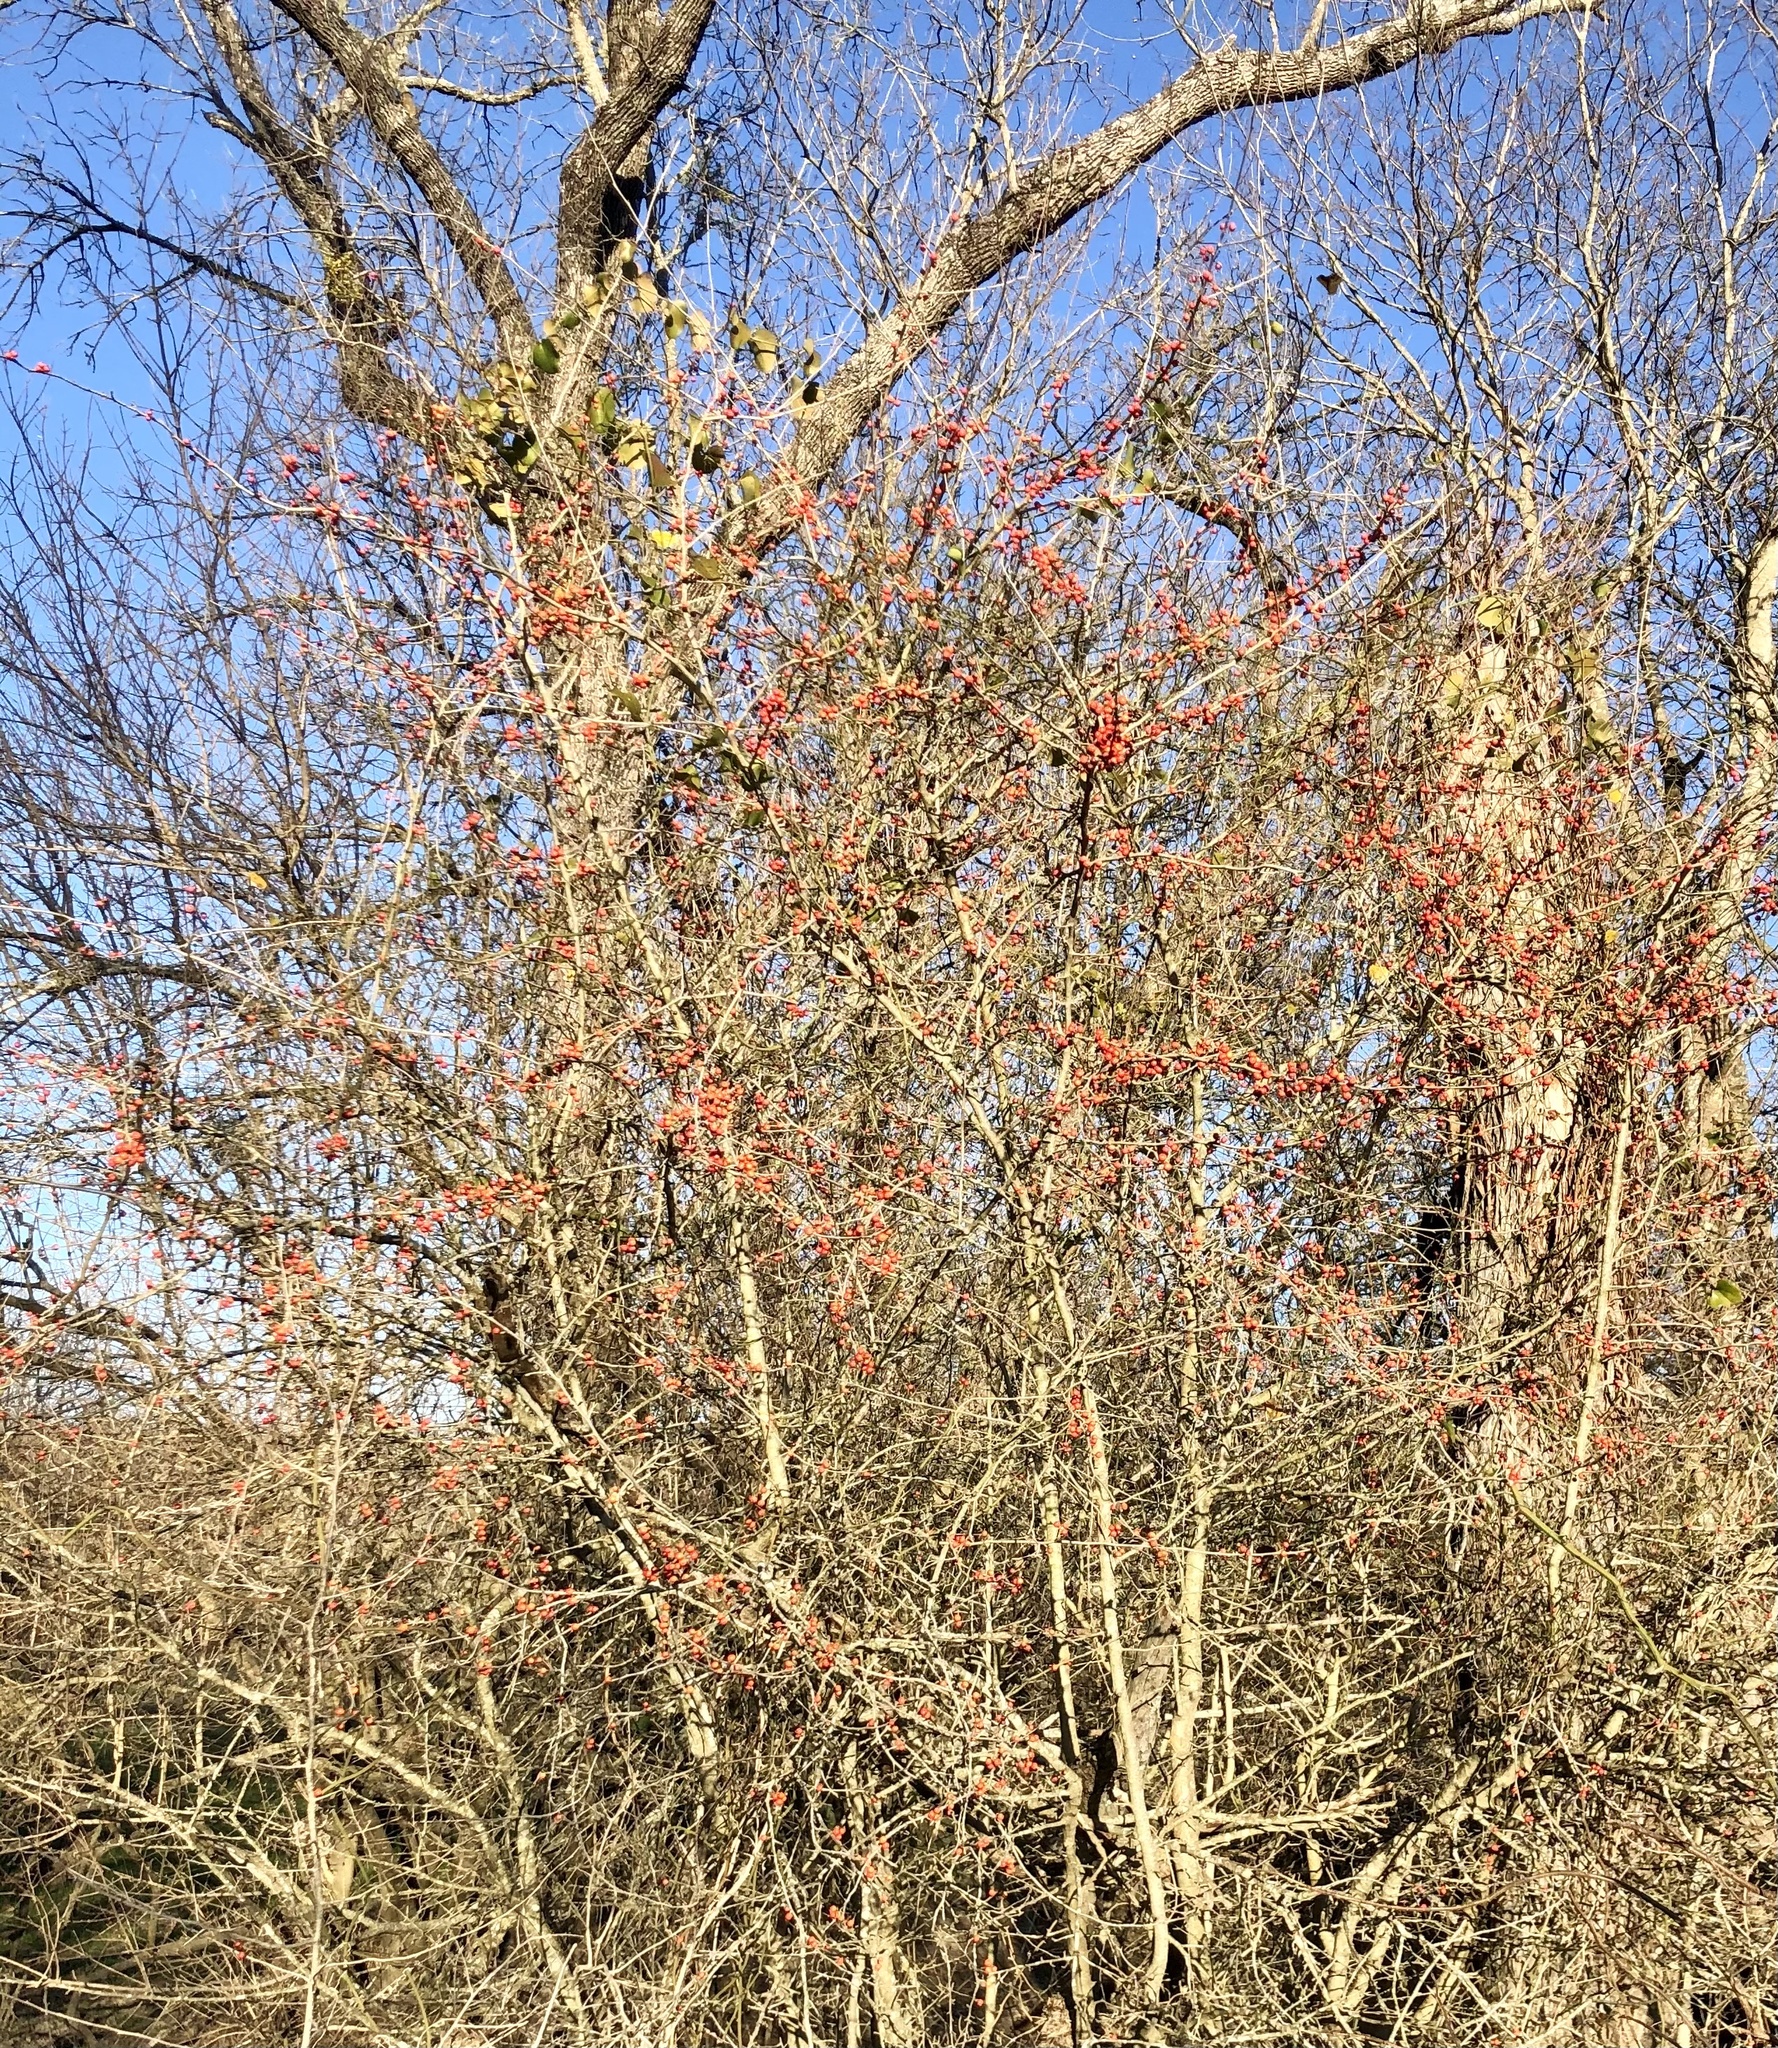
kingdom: Plantae
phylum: Tracheophyta
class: Magnoliopsida
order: Aquifoliales
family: Aquifoliaceae
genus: Ilex
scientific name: Ilex decidua
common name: Possum-haw
